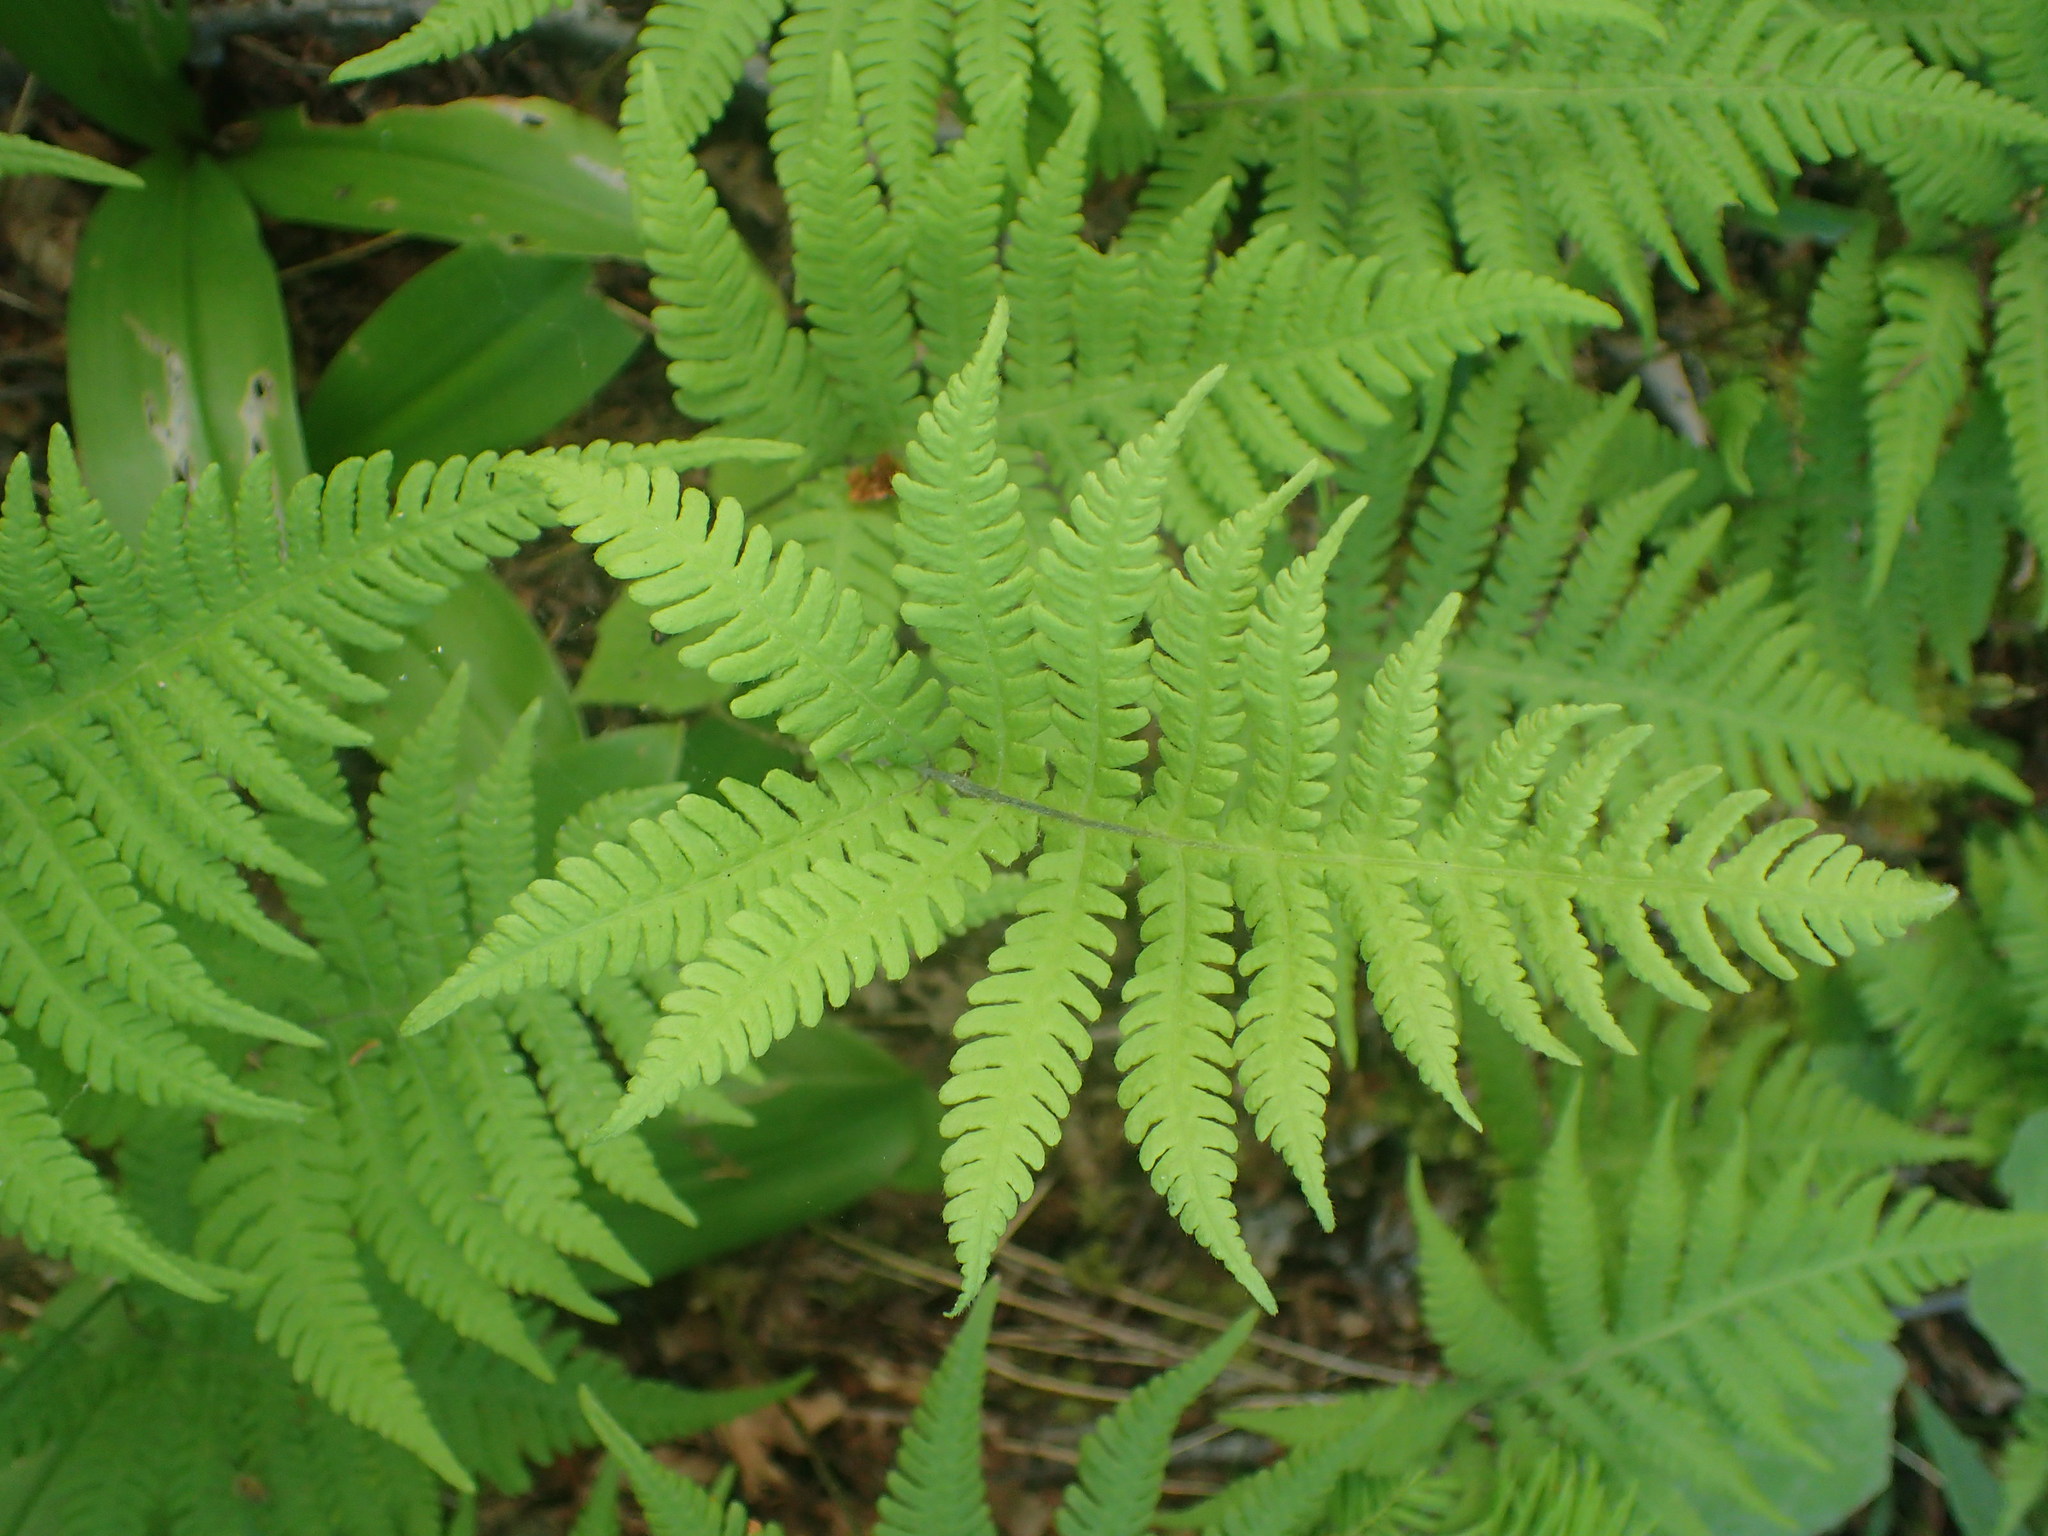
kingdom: Plantae
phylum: Tracheophyta
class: Polypodiopsida
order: Polypodiales
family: Thelypteridaceae
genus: Phegopteris
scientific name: Phegopteris connectilis
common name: Beech fern
